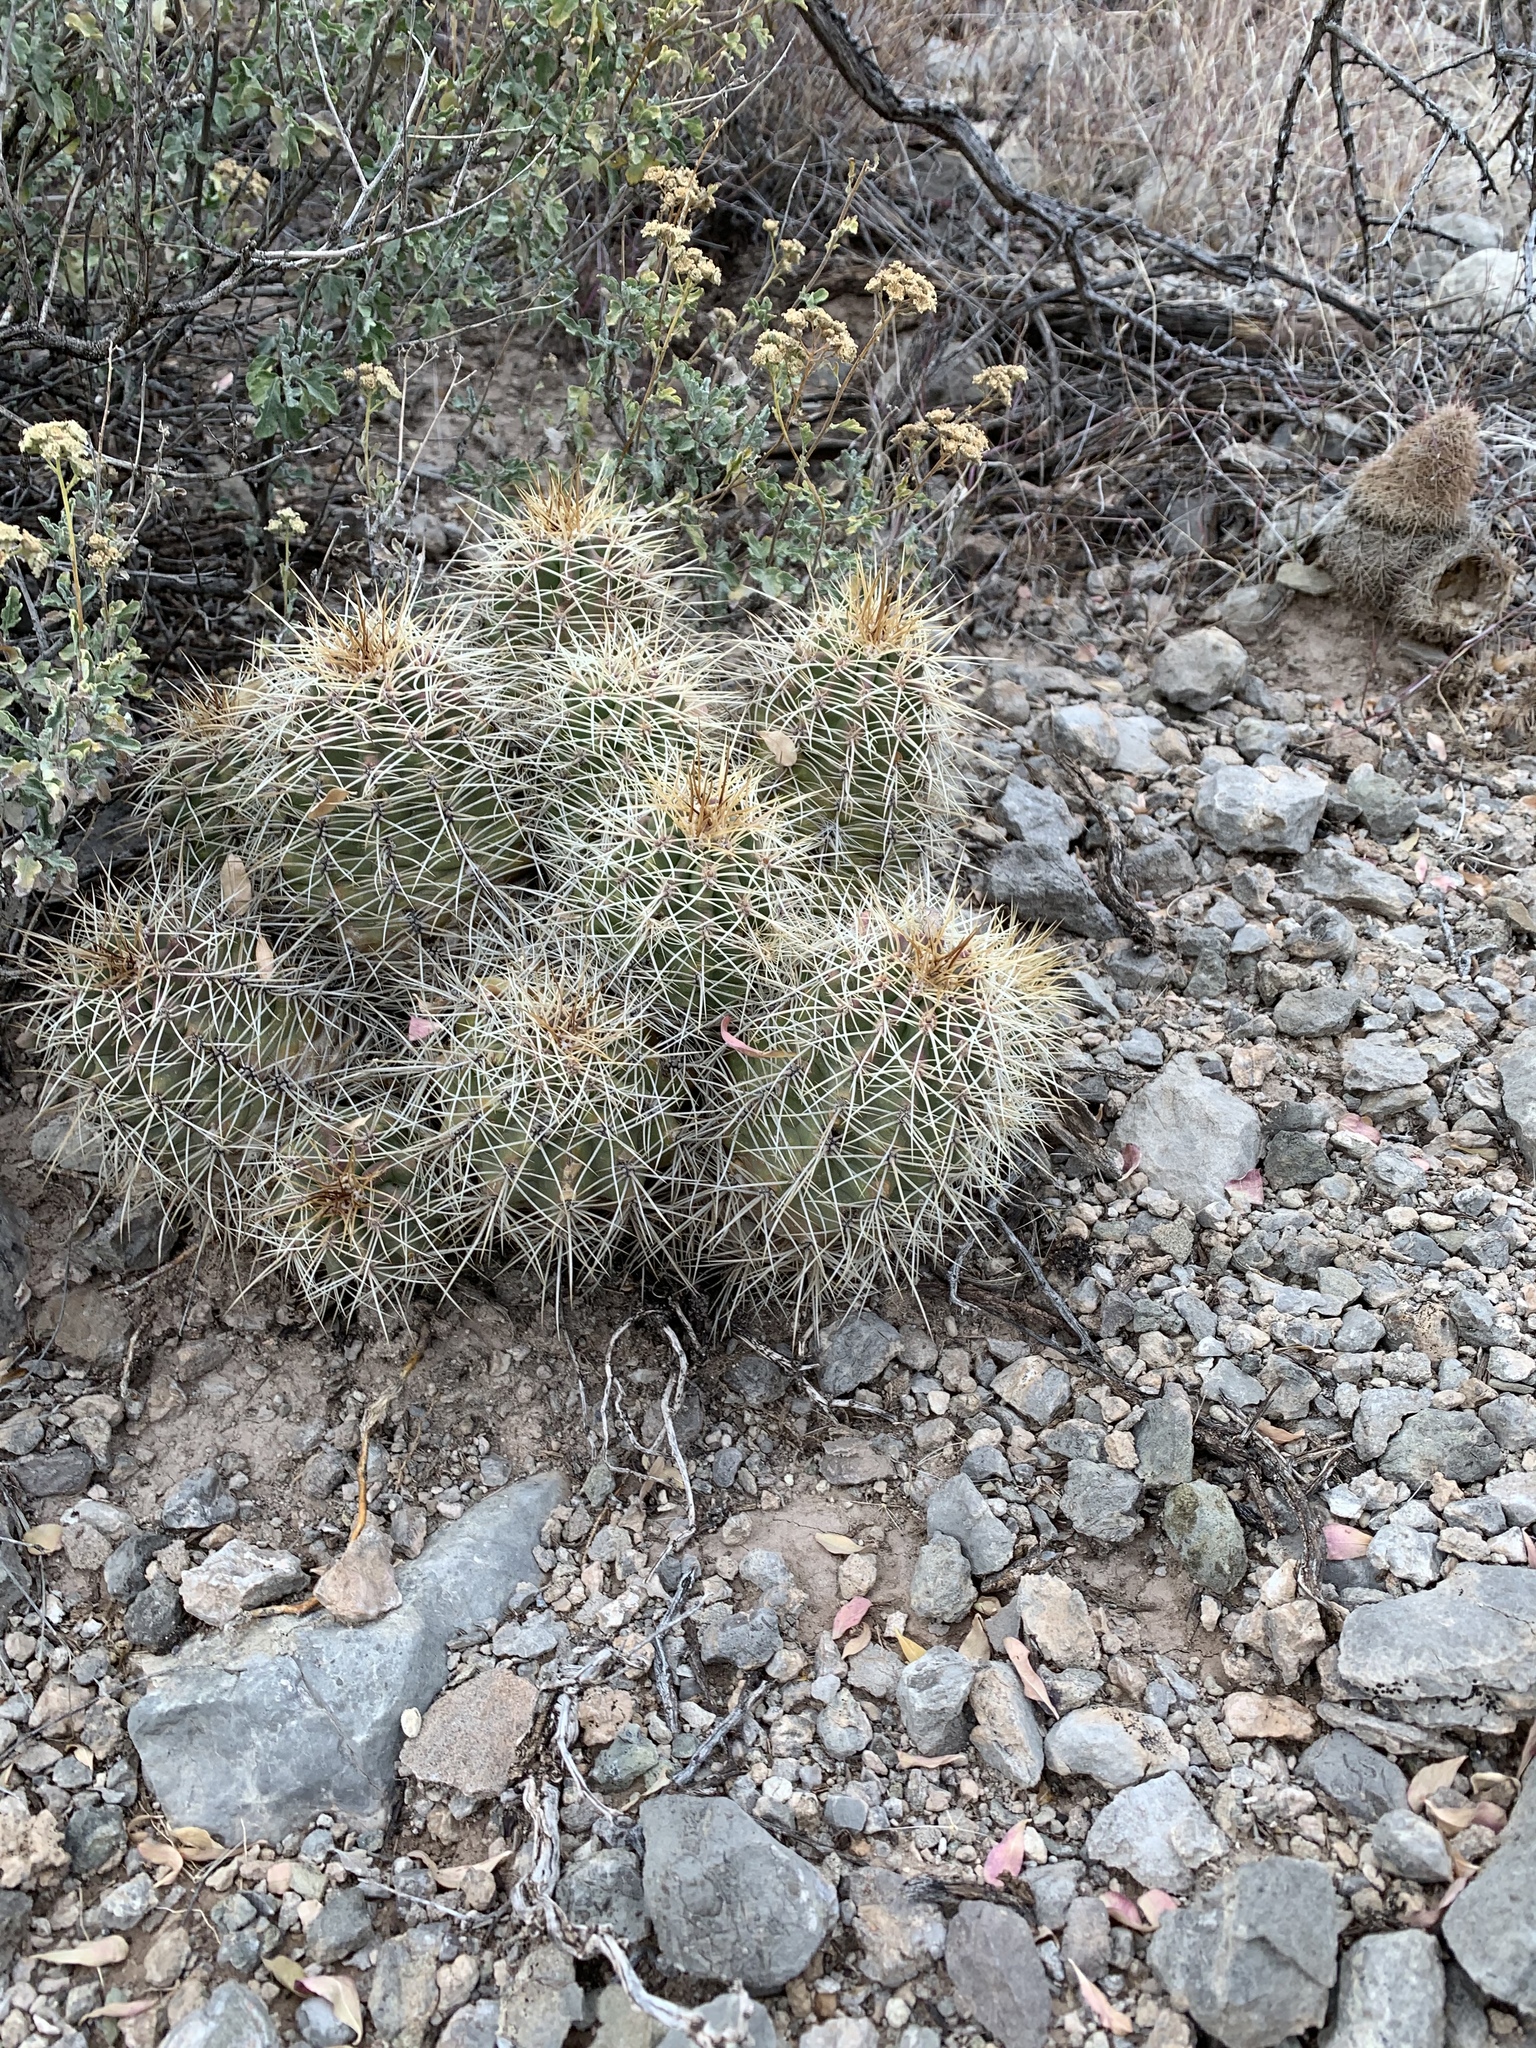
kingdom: Plantae
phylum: Tracheophyta
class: Magnoliopsida
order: Caryophyllales
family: Cactaceae
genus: Echinocereus
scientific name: Echinocereus coccineus
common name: Scarlet hedgehog cactus
